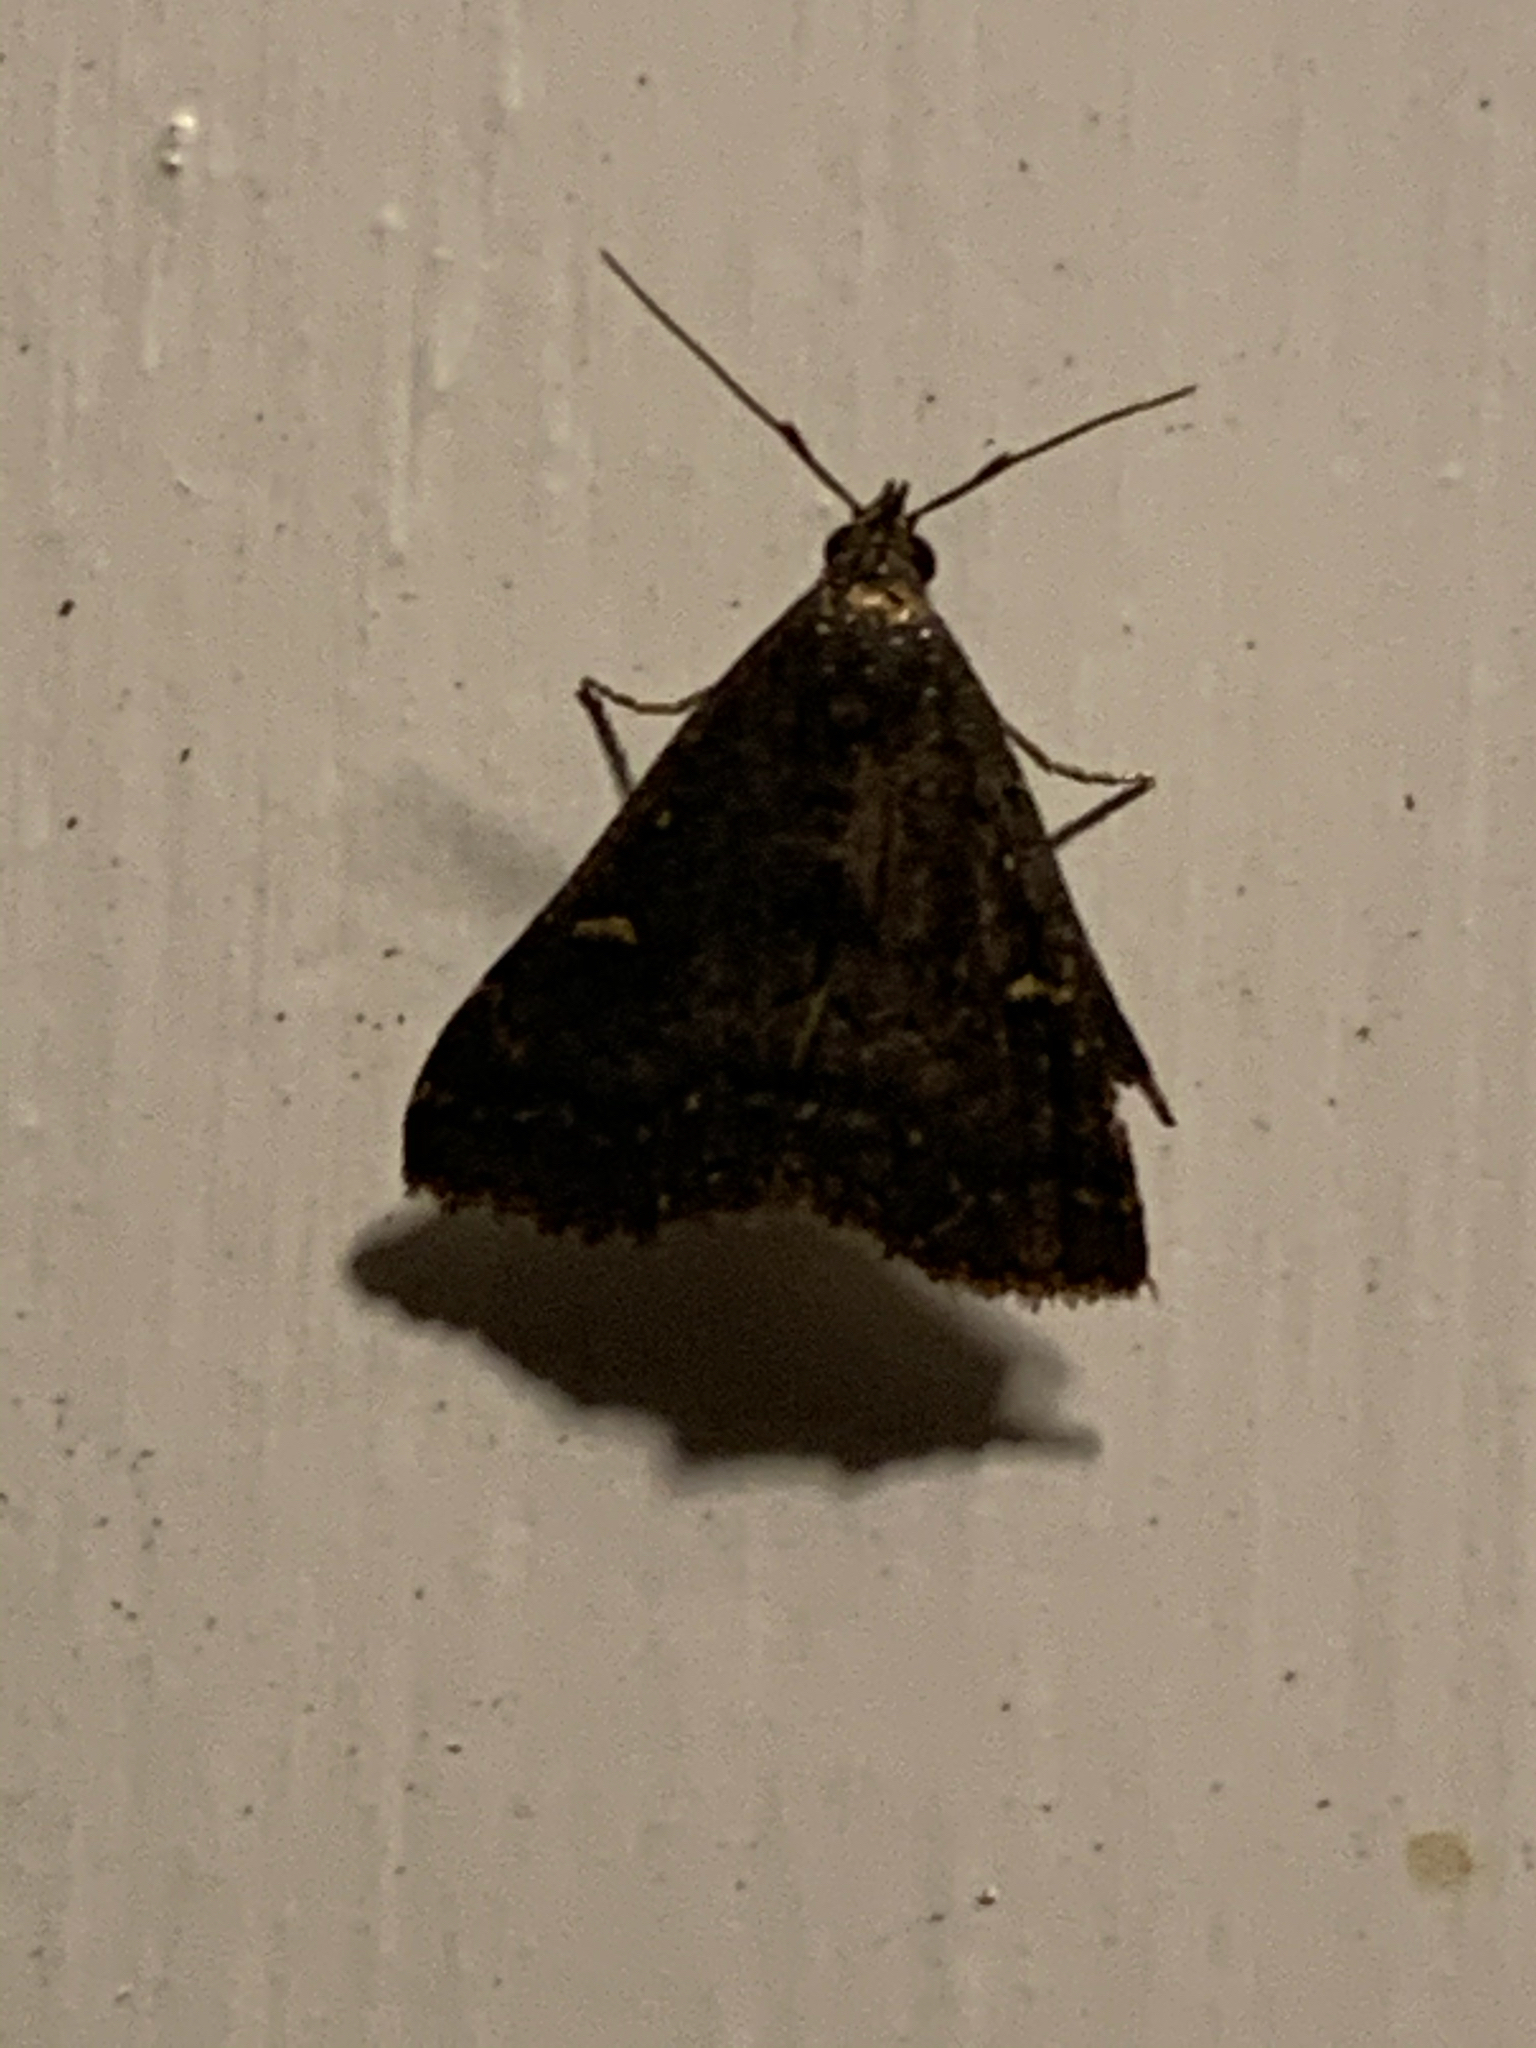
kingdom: Animalia
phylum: Arthropoda
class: Insecta
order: Lepidoptera
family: Erebidae
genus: Tetanolita
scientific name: Tetanolita mynesalis
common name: Smoky tetanolita moth
